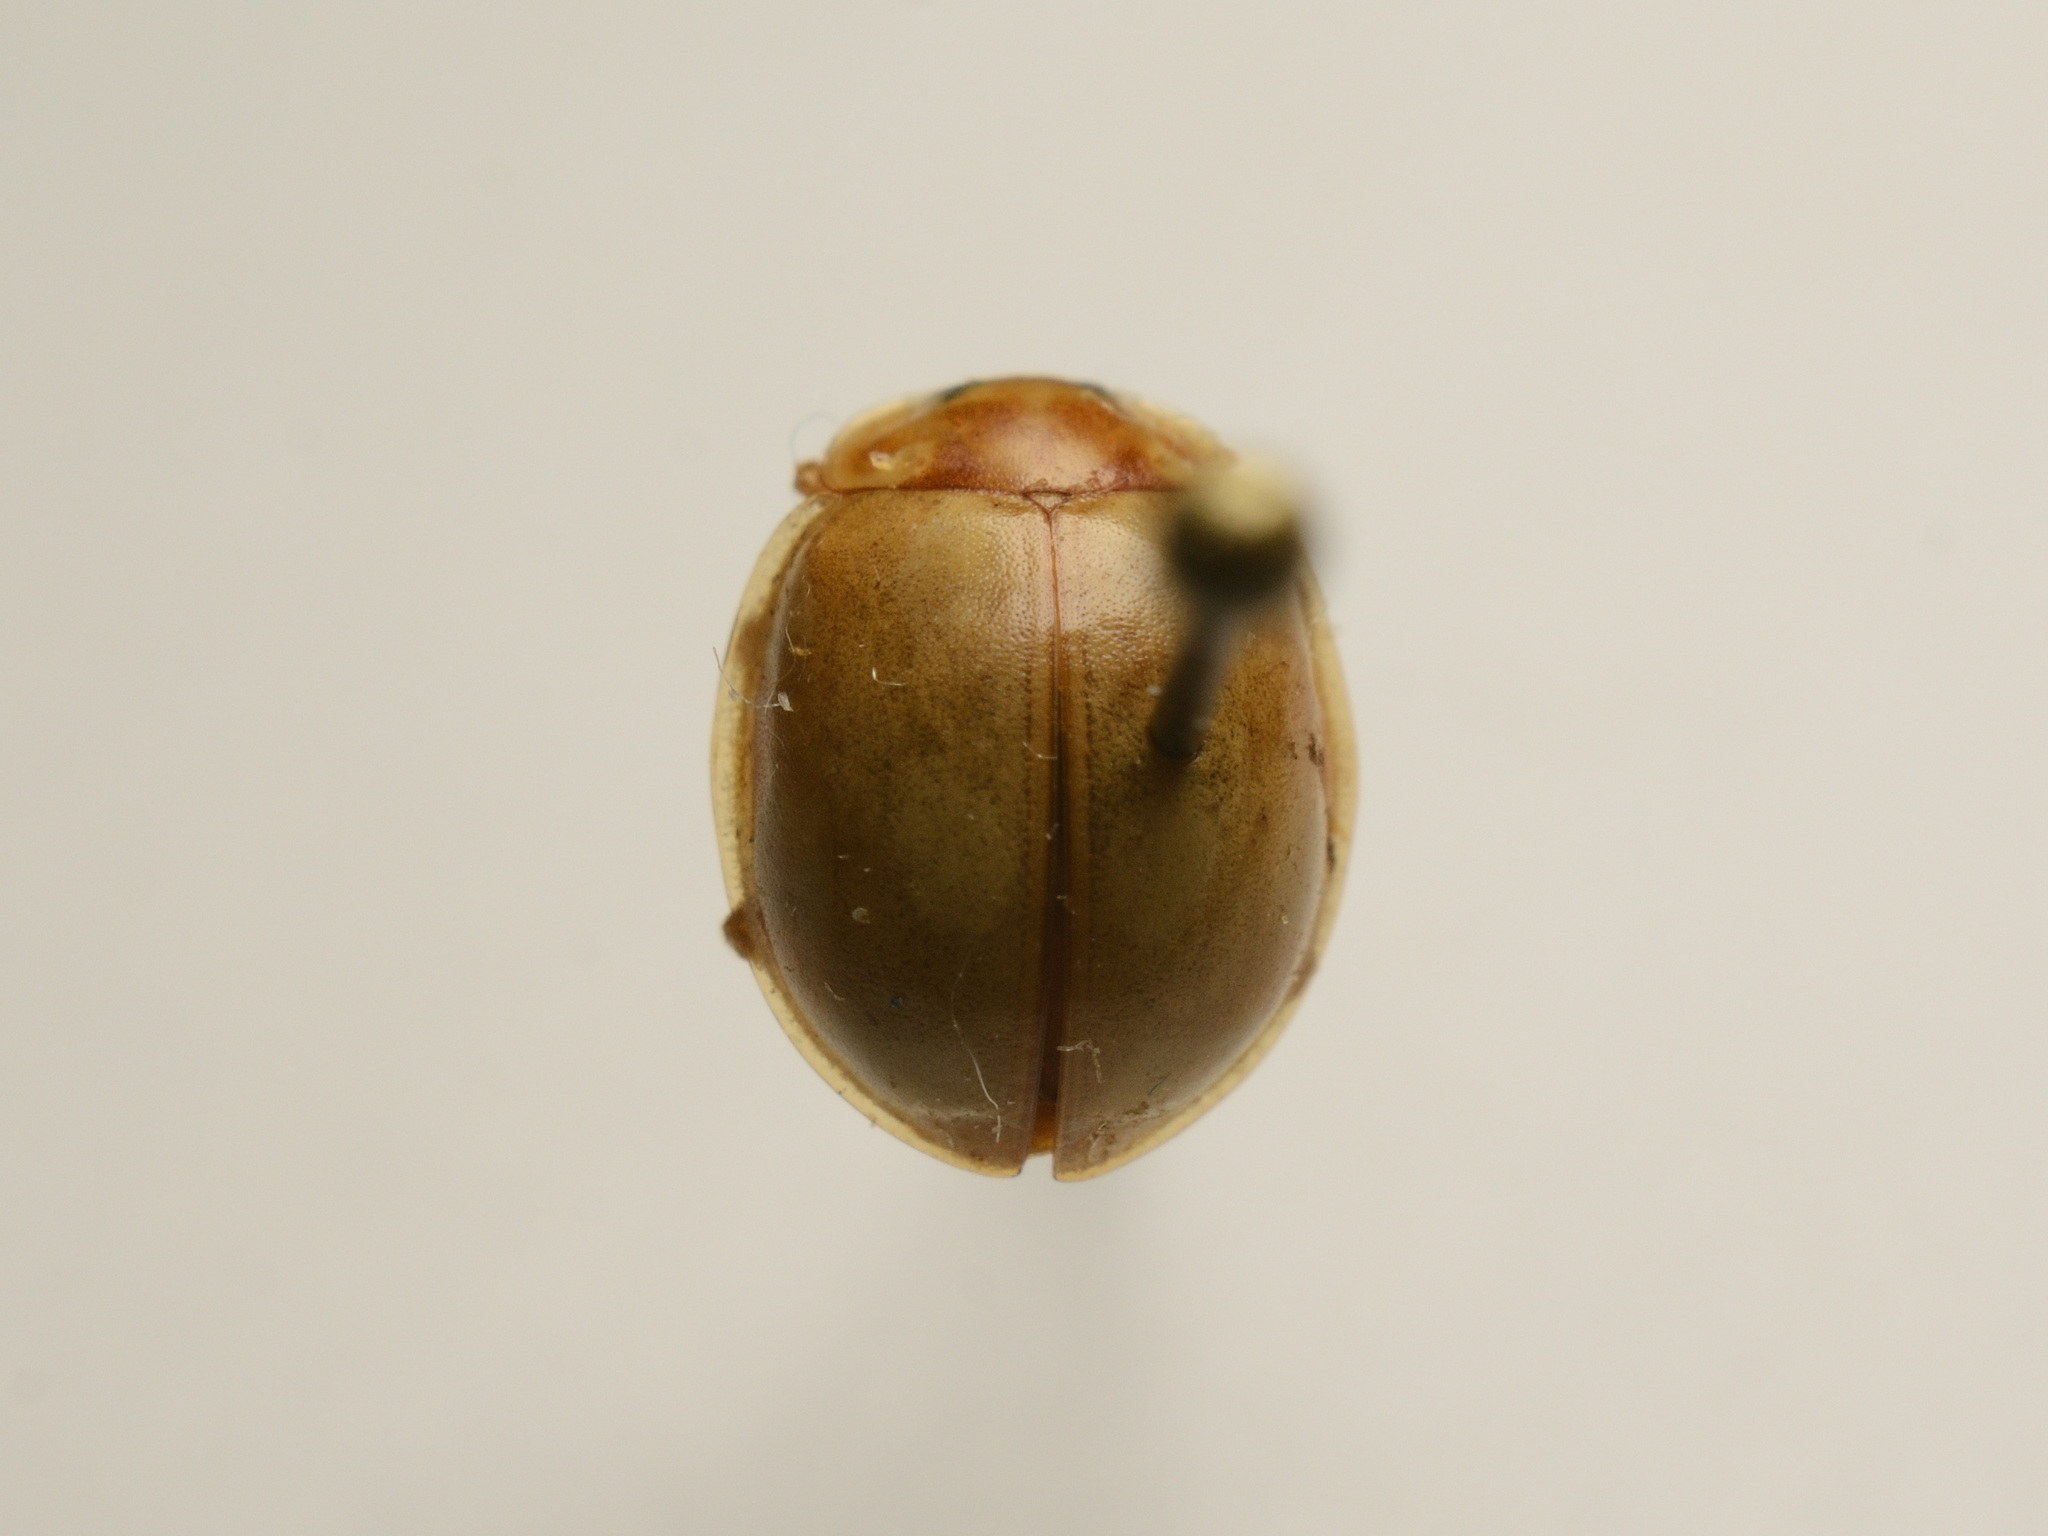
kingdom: Animalia
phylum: Arthropoda
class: Insecta
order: Coleoptera
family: Coccinellidae
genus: Calvia
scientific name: Calvia decemguttata
